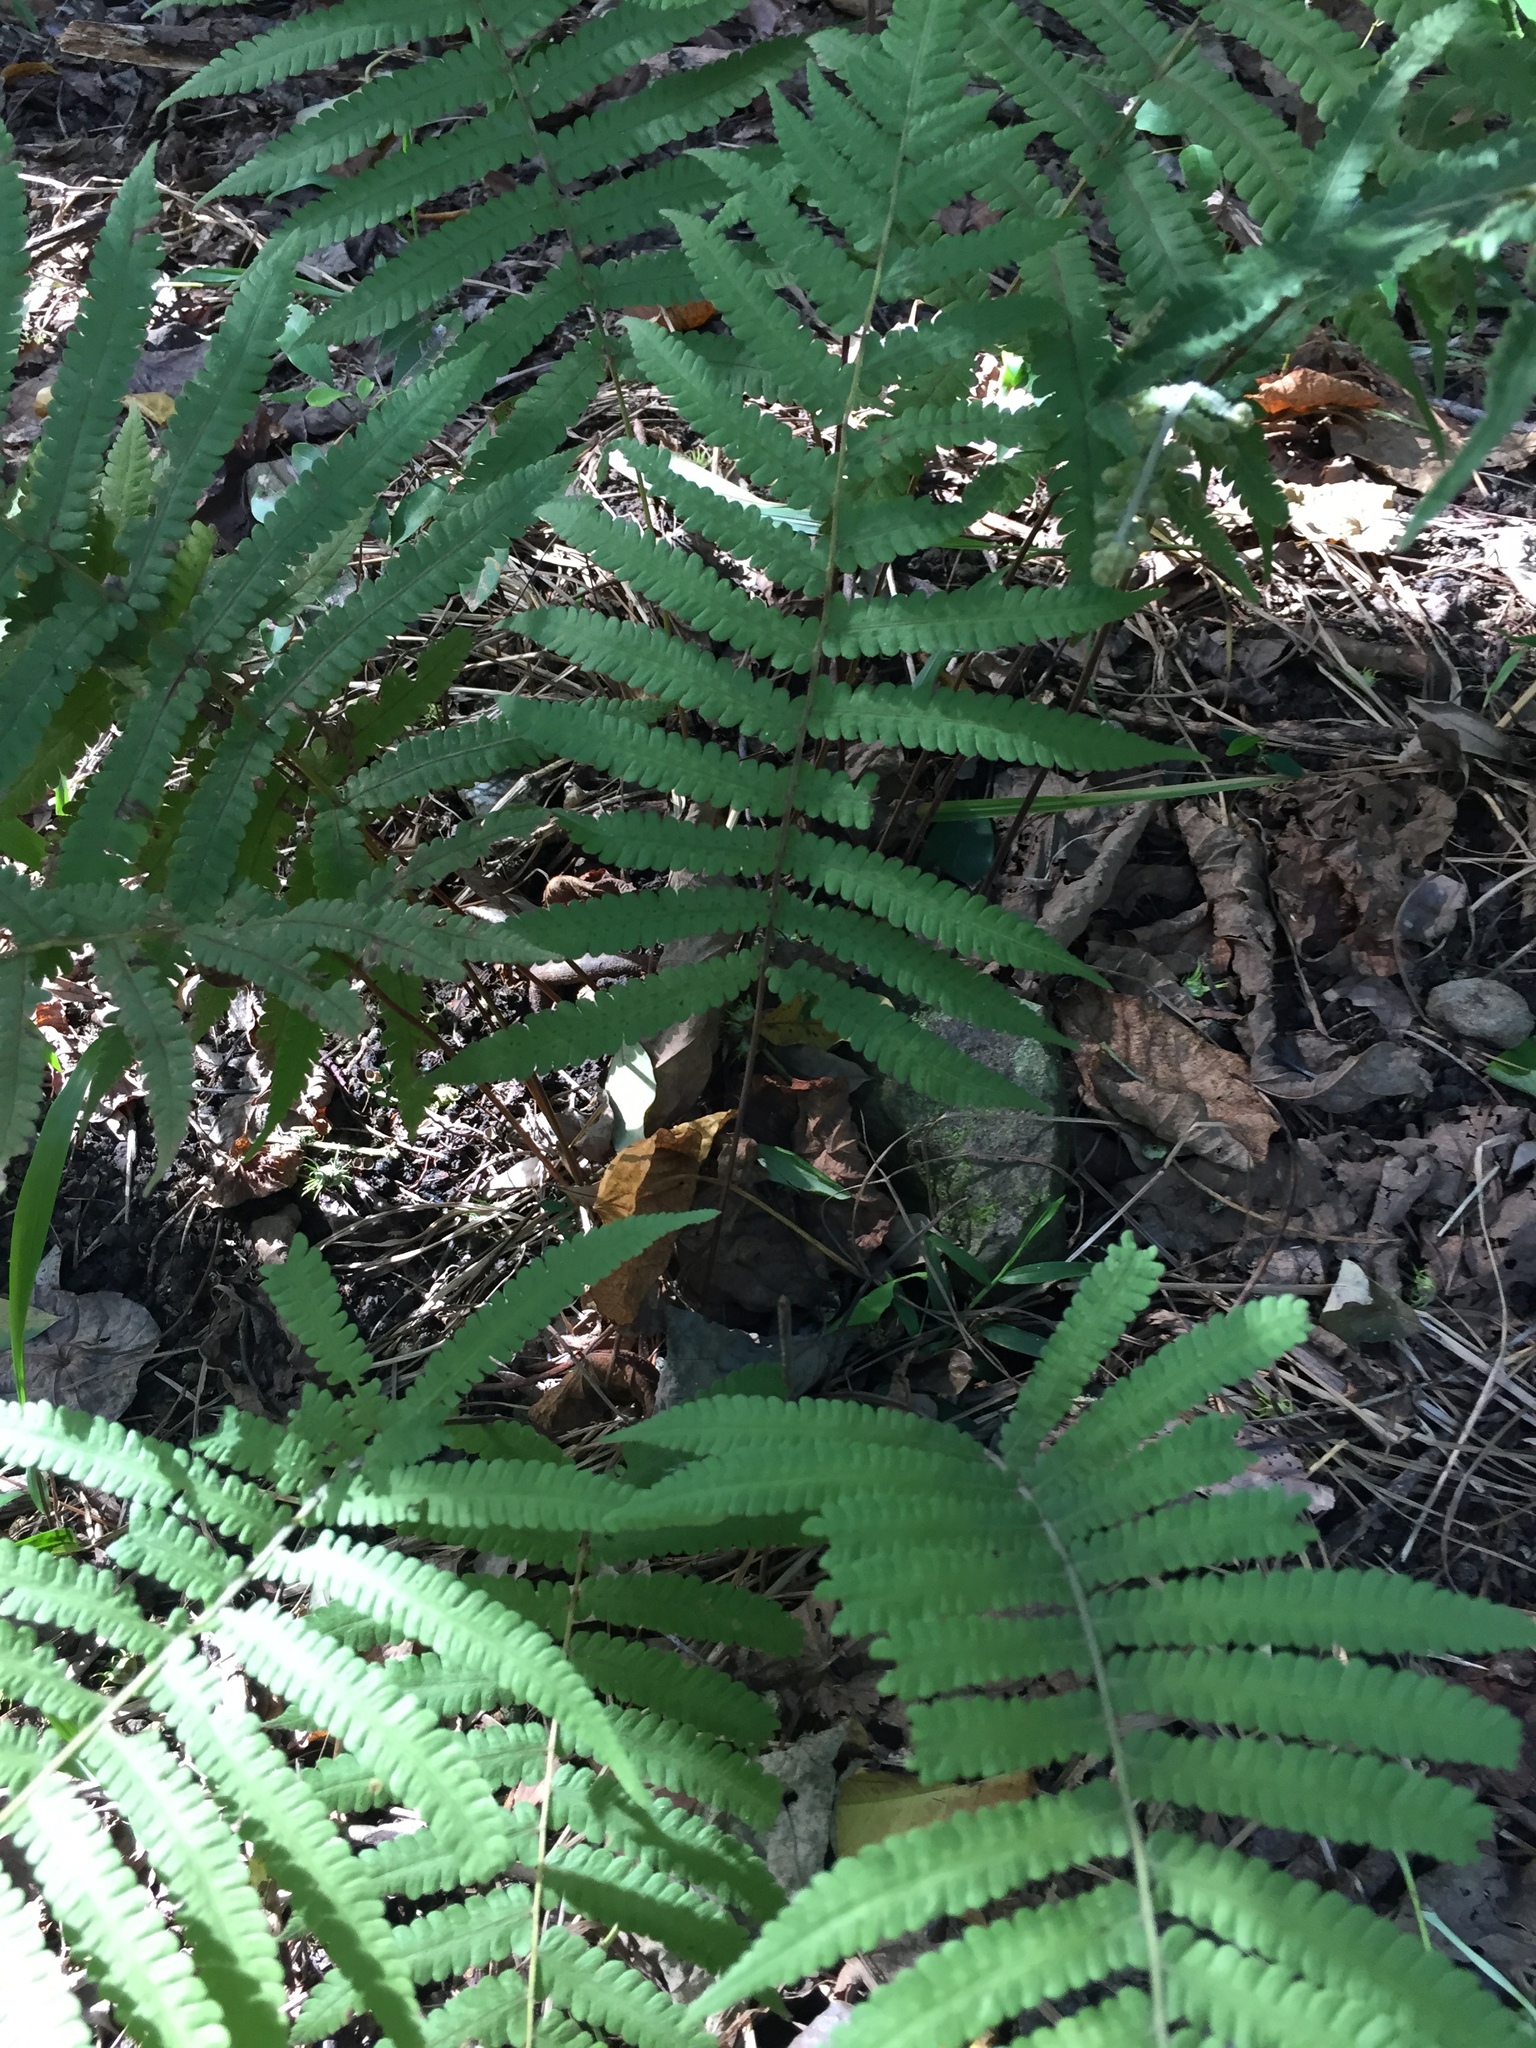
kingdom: Plantae
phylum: Tracheophyta
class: Polypodiopsida
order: Polypodiales
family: Thelypteridaceae
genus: Christella
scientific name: Christella parasitica
